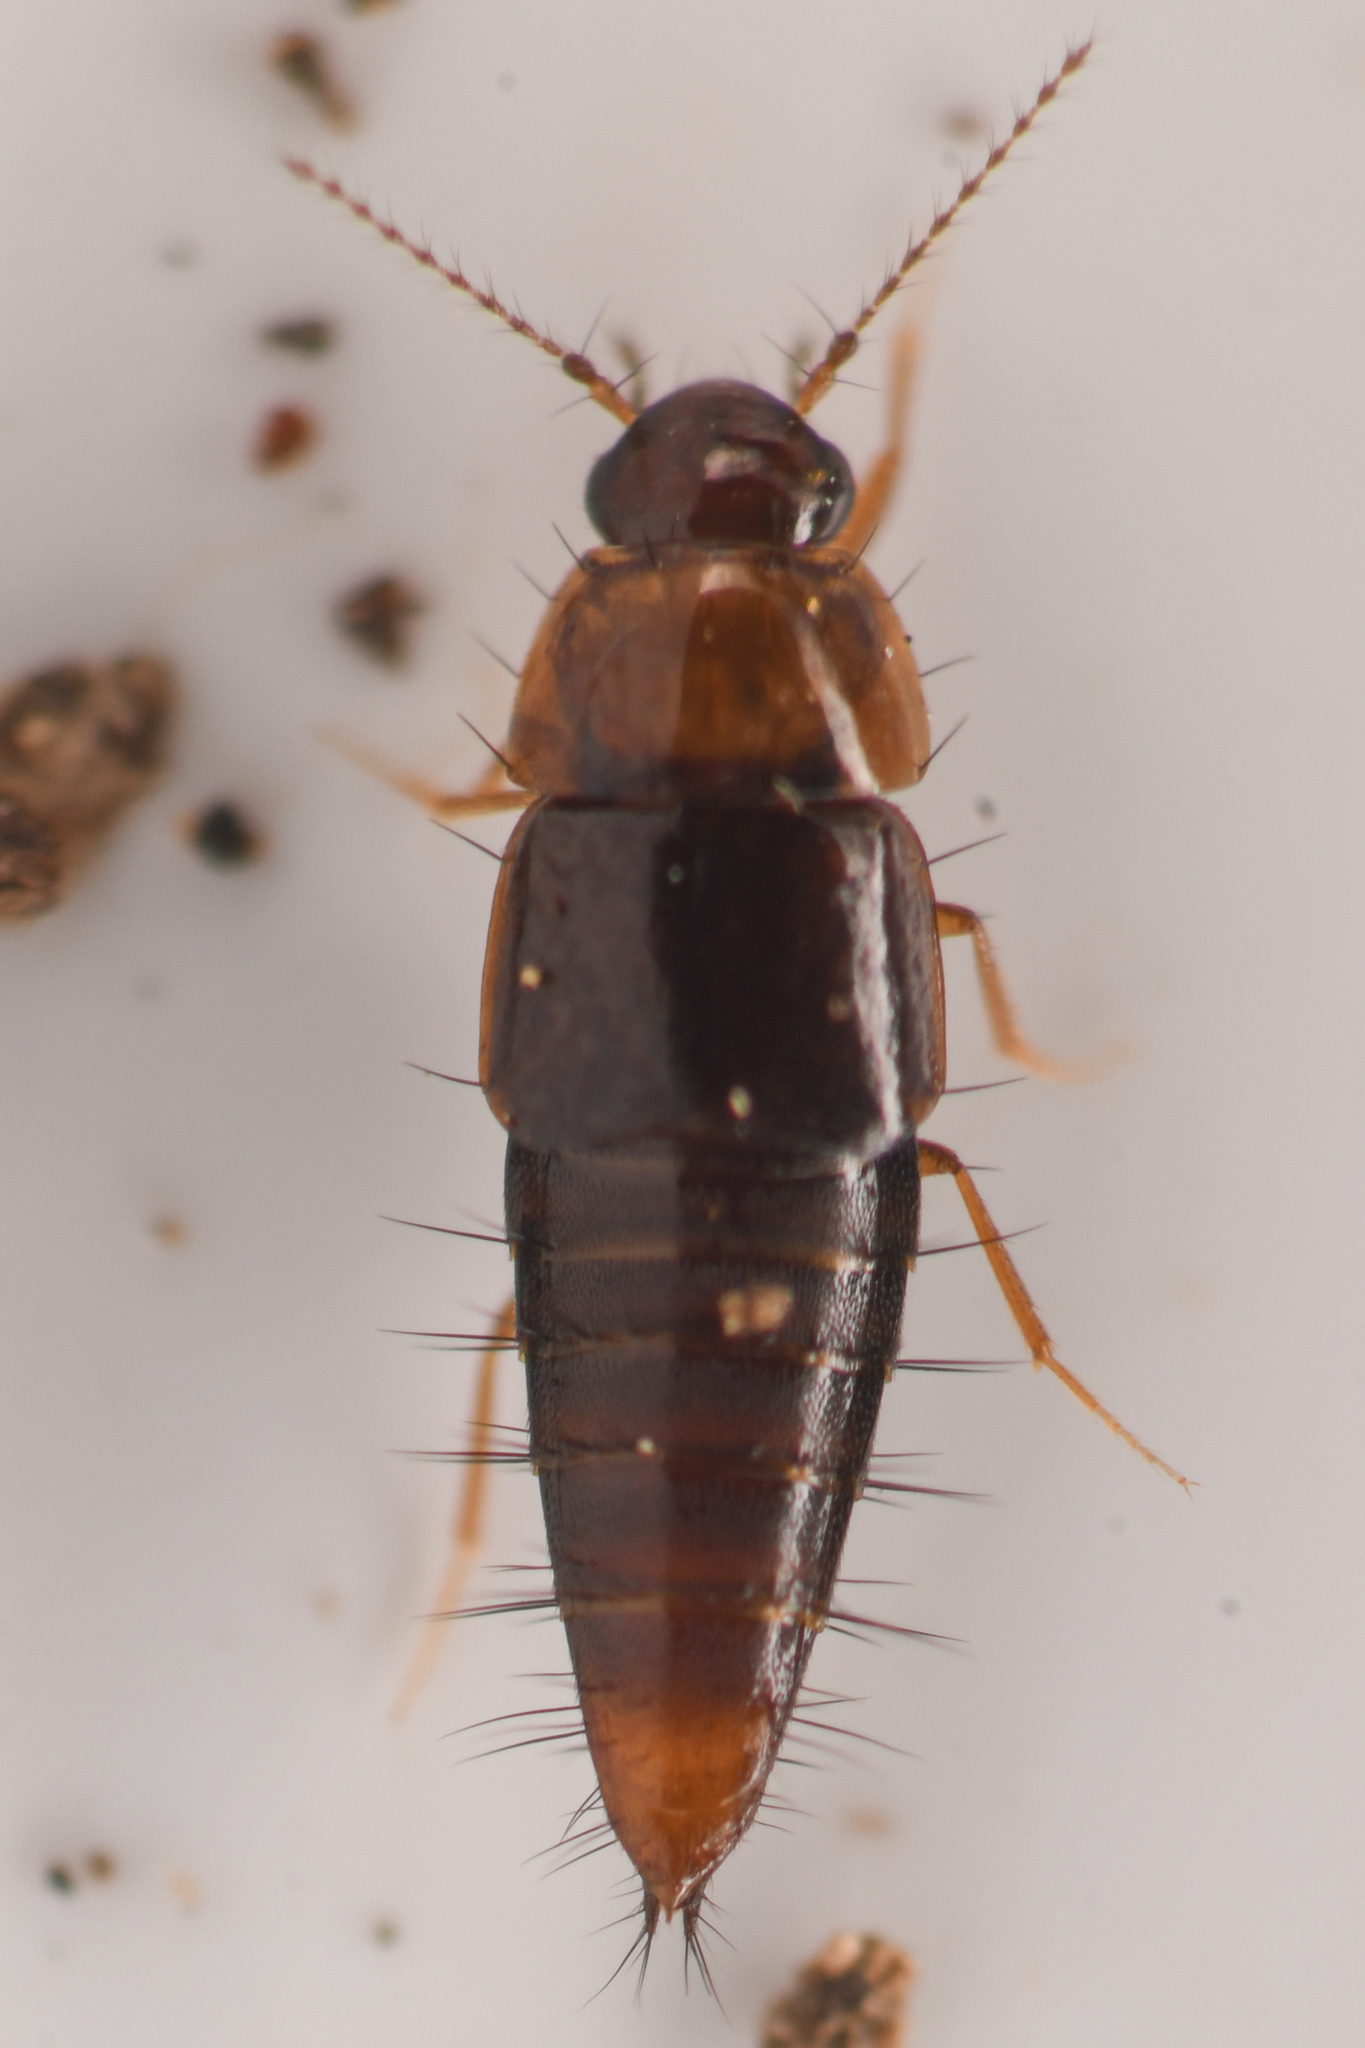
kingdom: Animalia
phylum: Arthropoda
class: Insecta
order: Coleoptera
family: Staphylinidae
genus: Habrocerus
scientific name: Habrocerus capillaricornis
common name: Staph beetle
